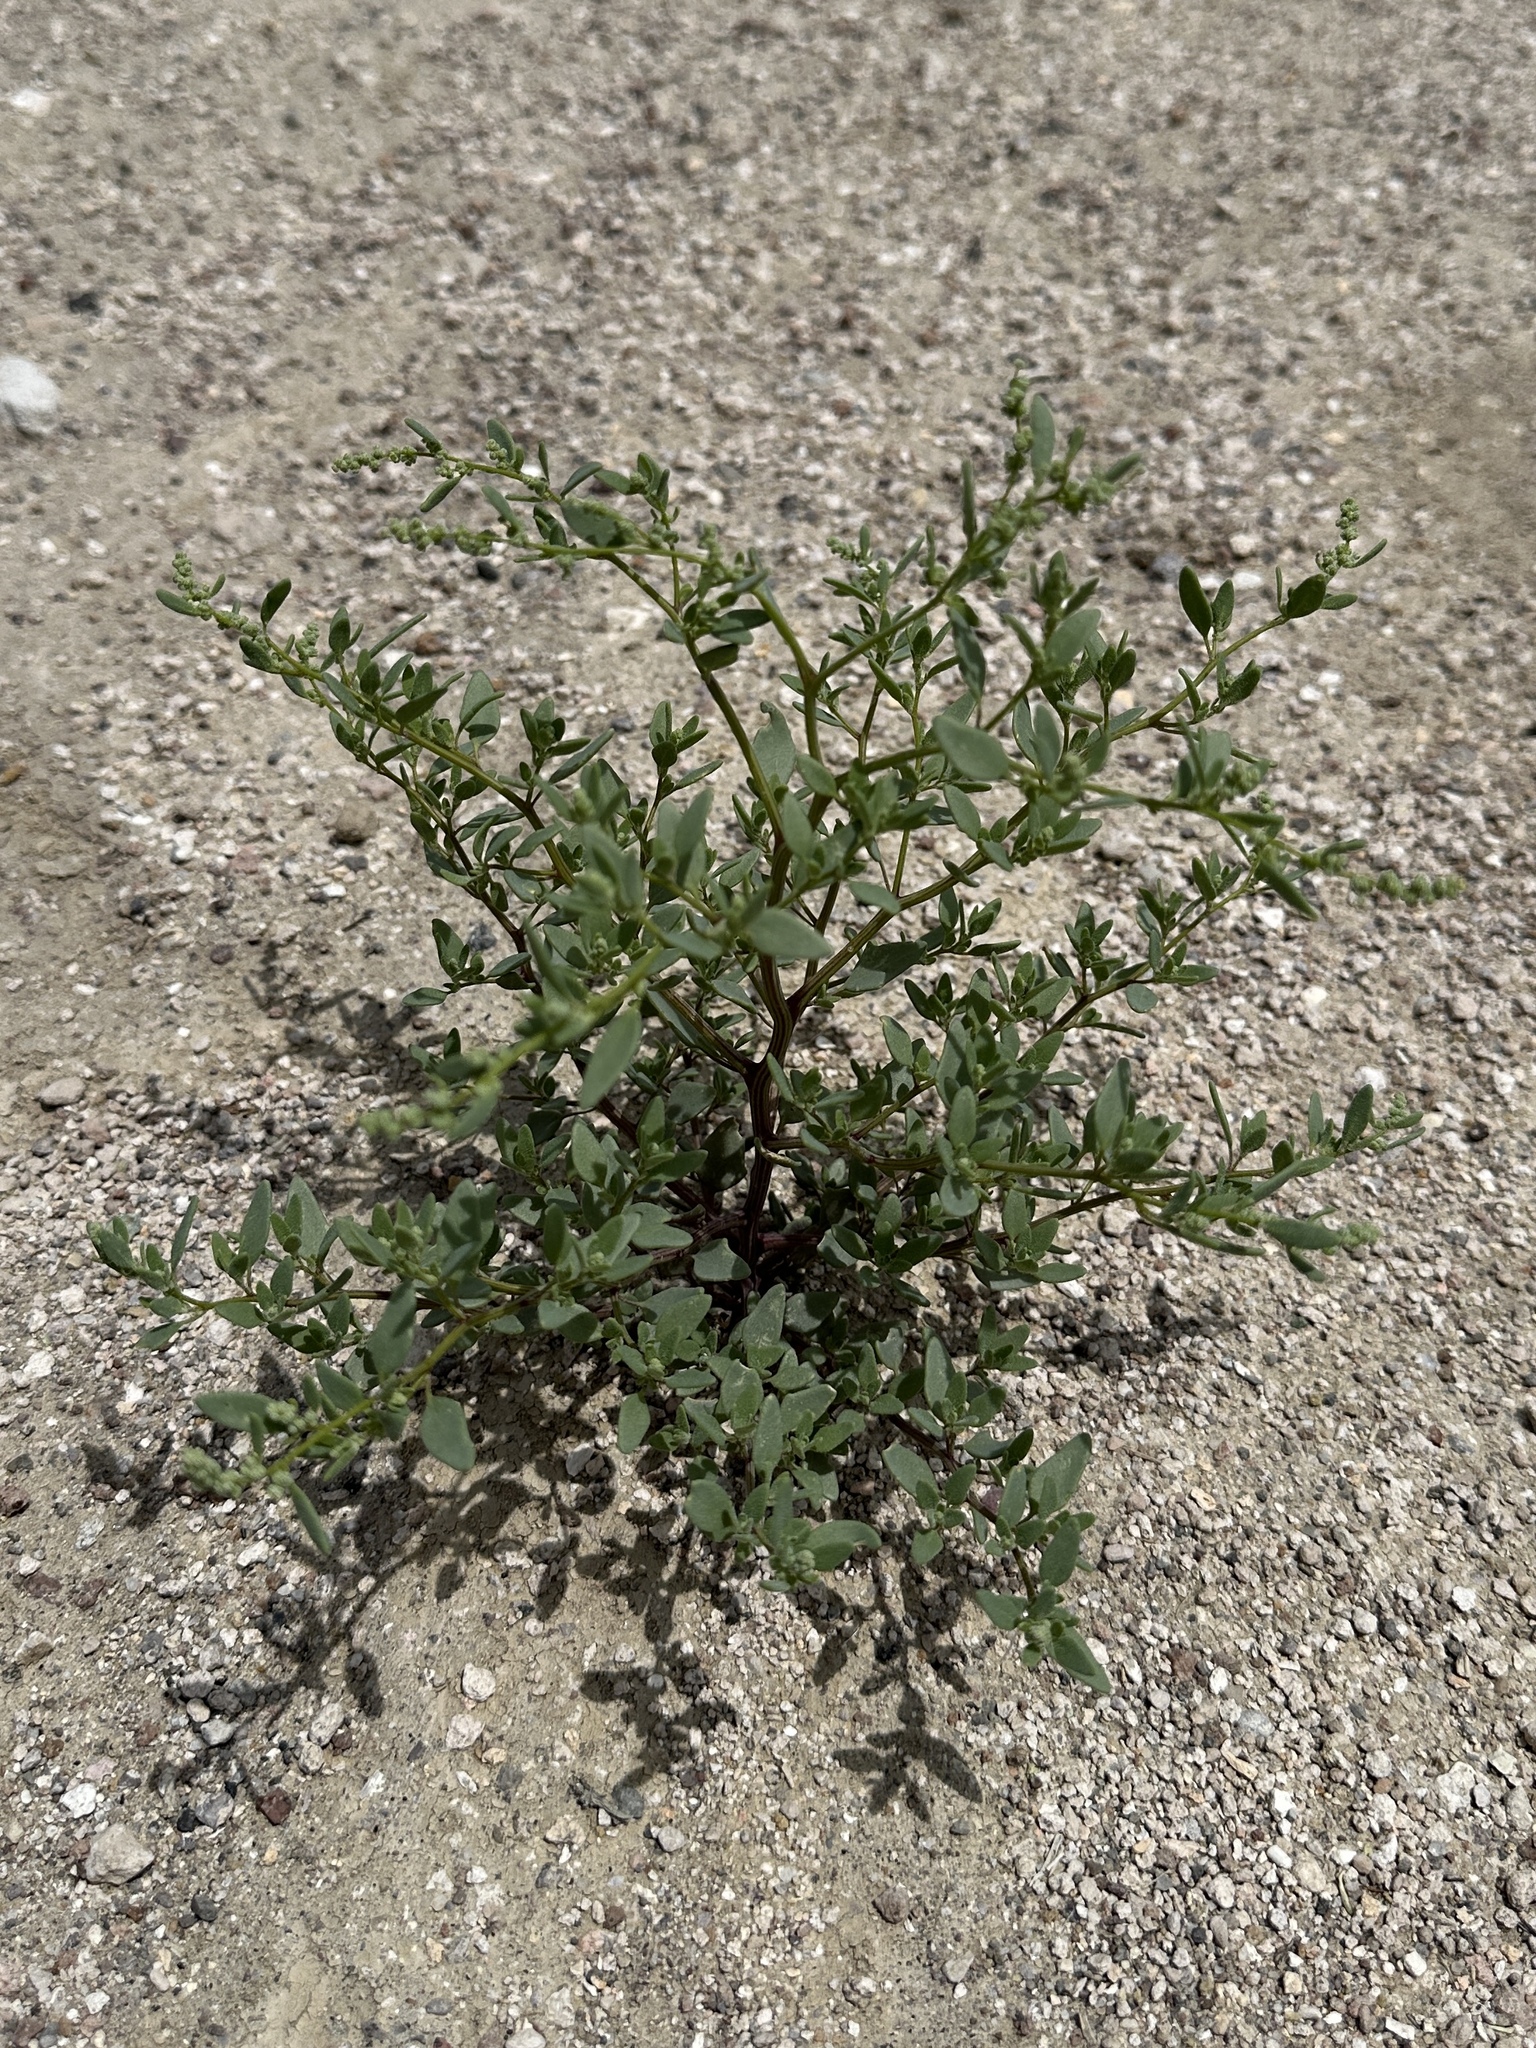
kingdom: Plantae
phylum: Tracheophyta
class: Magnoliopsida
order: Caryophyllales
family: Amaranthaceae
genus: Chenopodium
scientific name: Chenopodium nevadense
